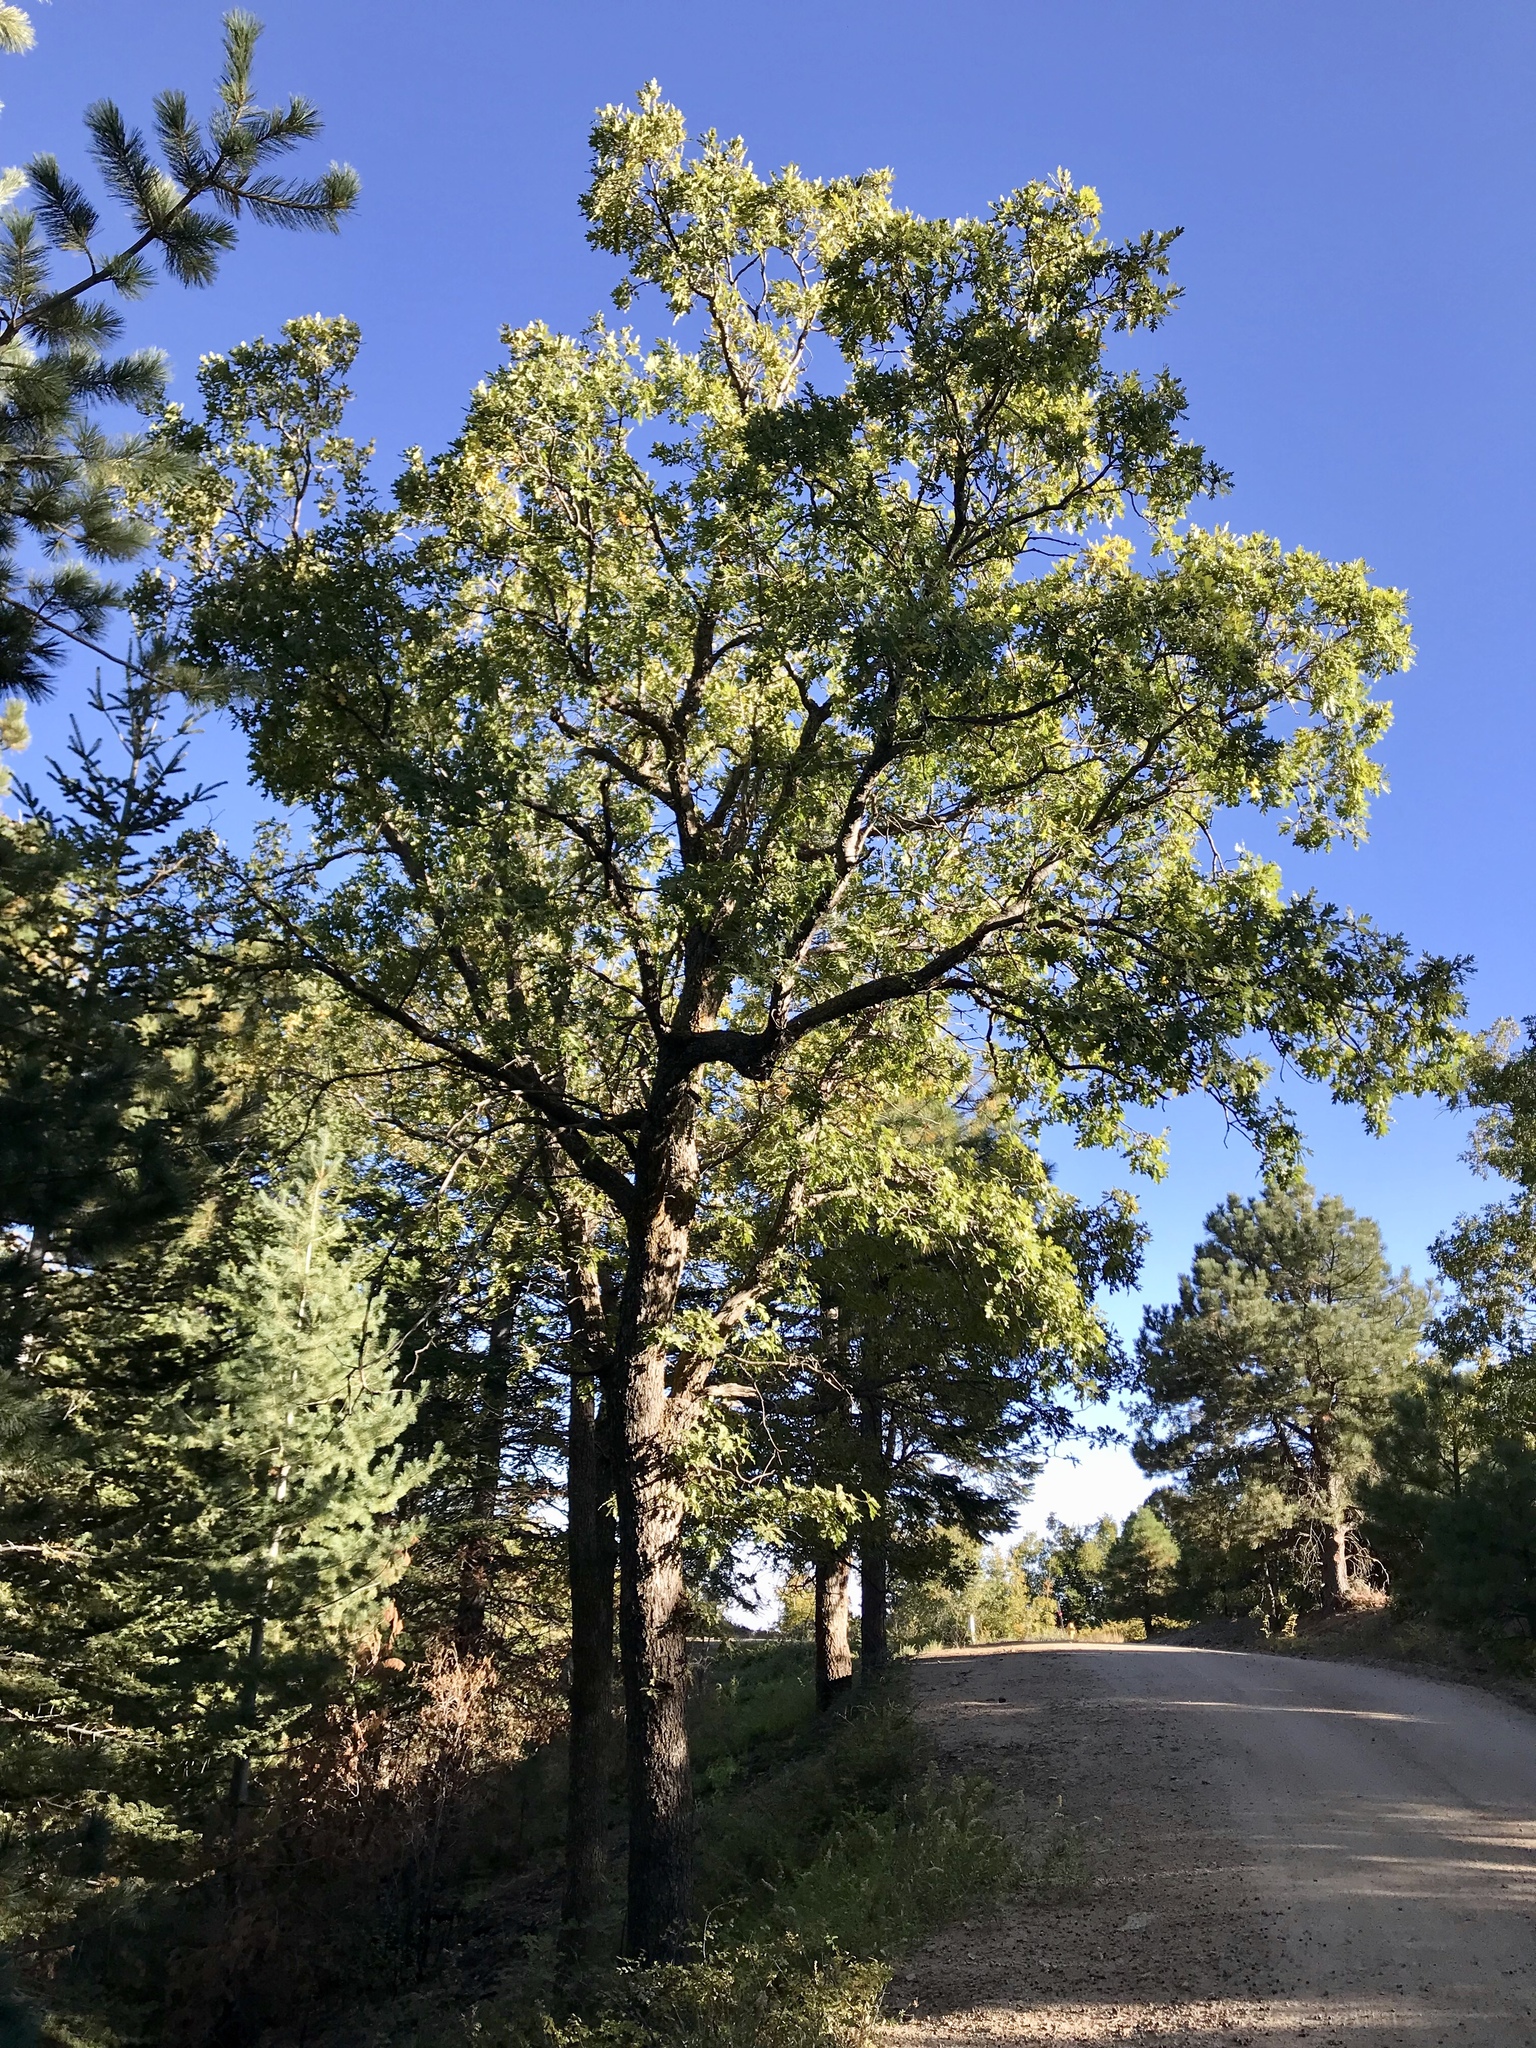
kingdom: Plantae
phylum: Tracheophyta
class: Magnoliopsida
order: Fagales
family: Fagaceae
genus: Quercus
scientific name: Quercus gambelii
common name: Gambel oak
